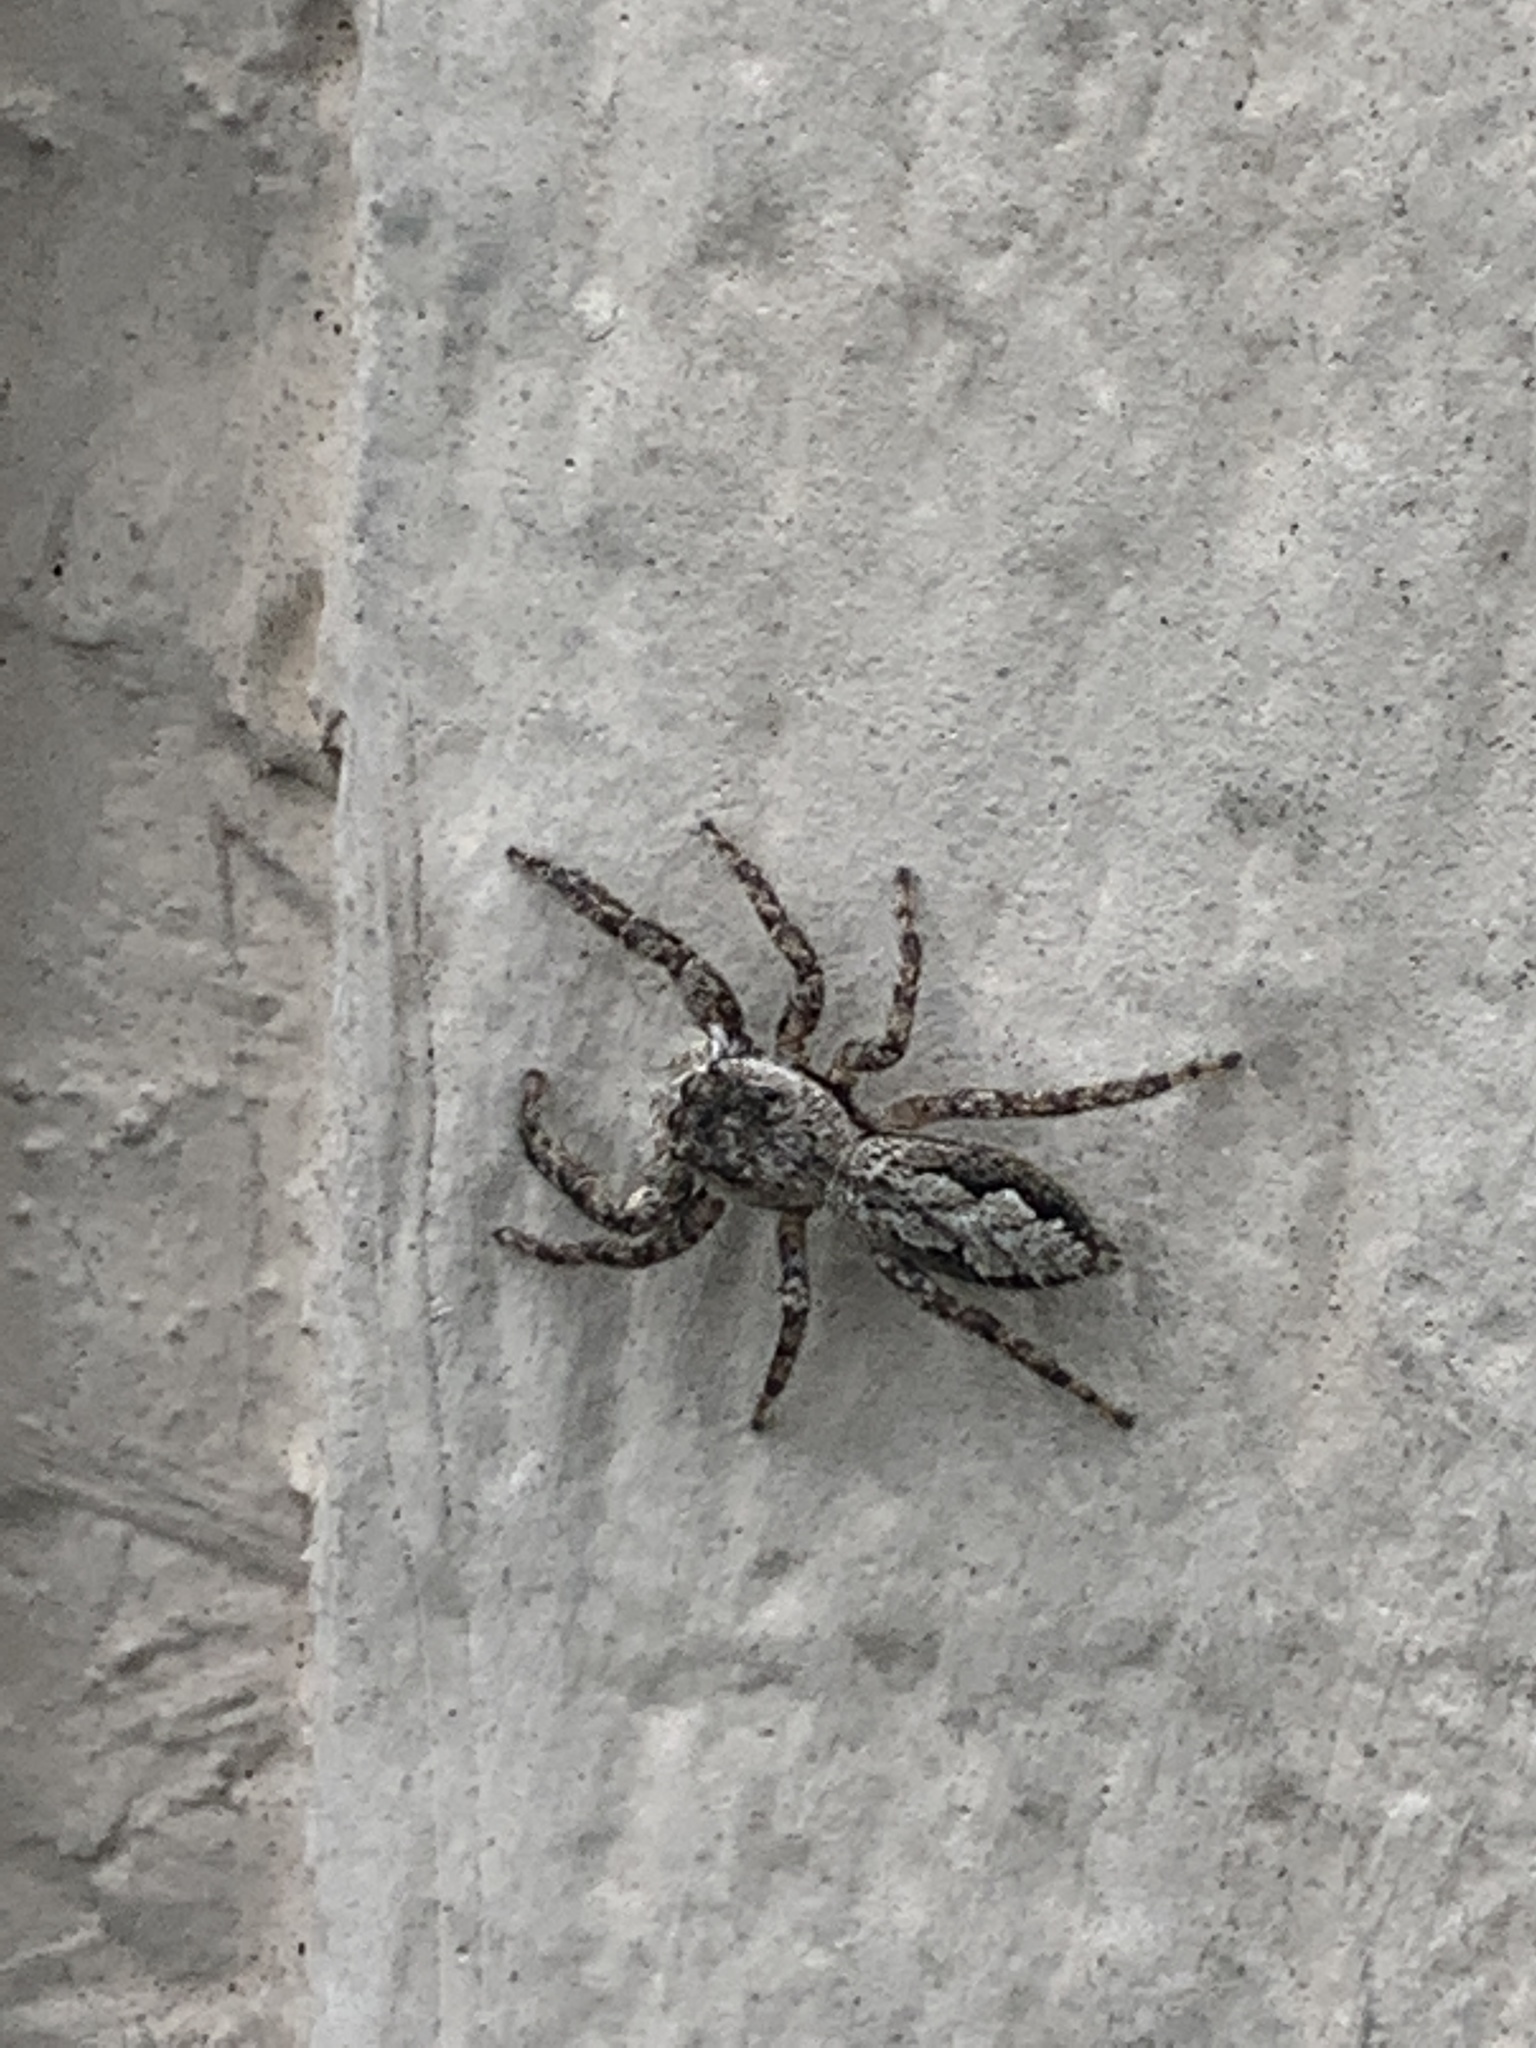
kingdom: Animalia
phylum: Arthropoda
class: Arachnida
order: Araneae
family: Salticidae
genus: Platycryptus
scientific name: Platycryptus undatus
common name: Tan jumping spider
